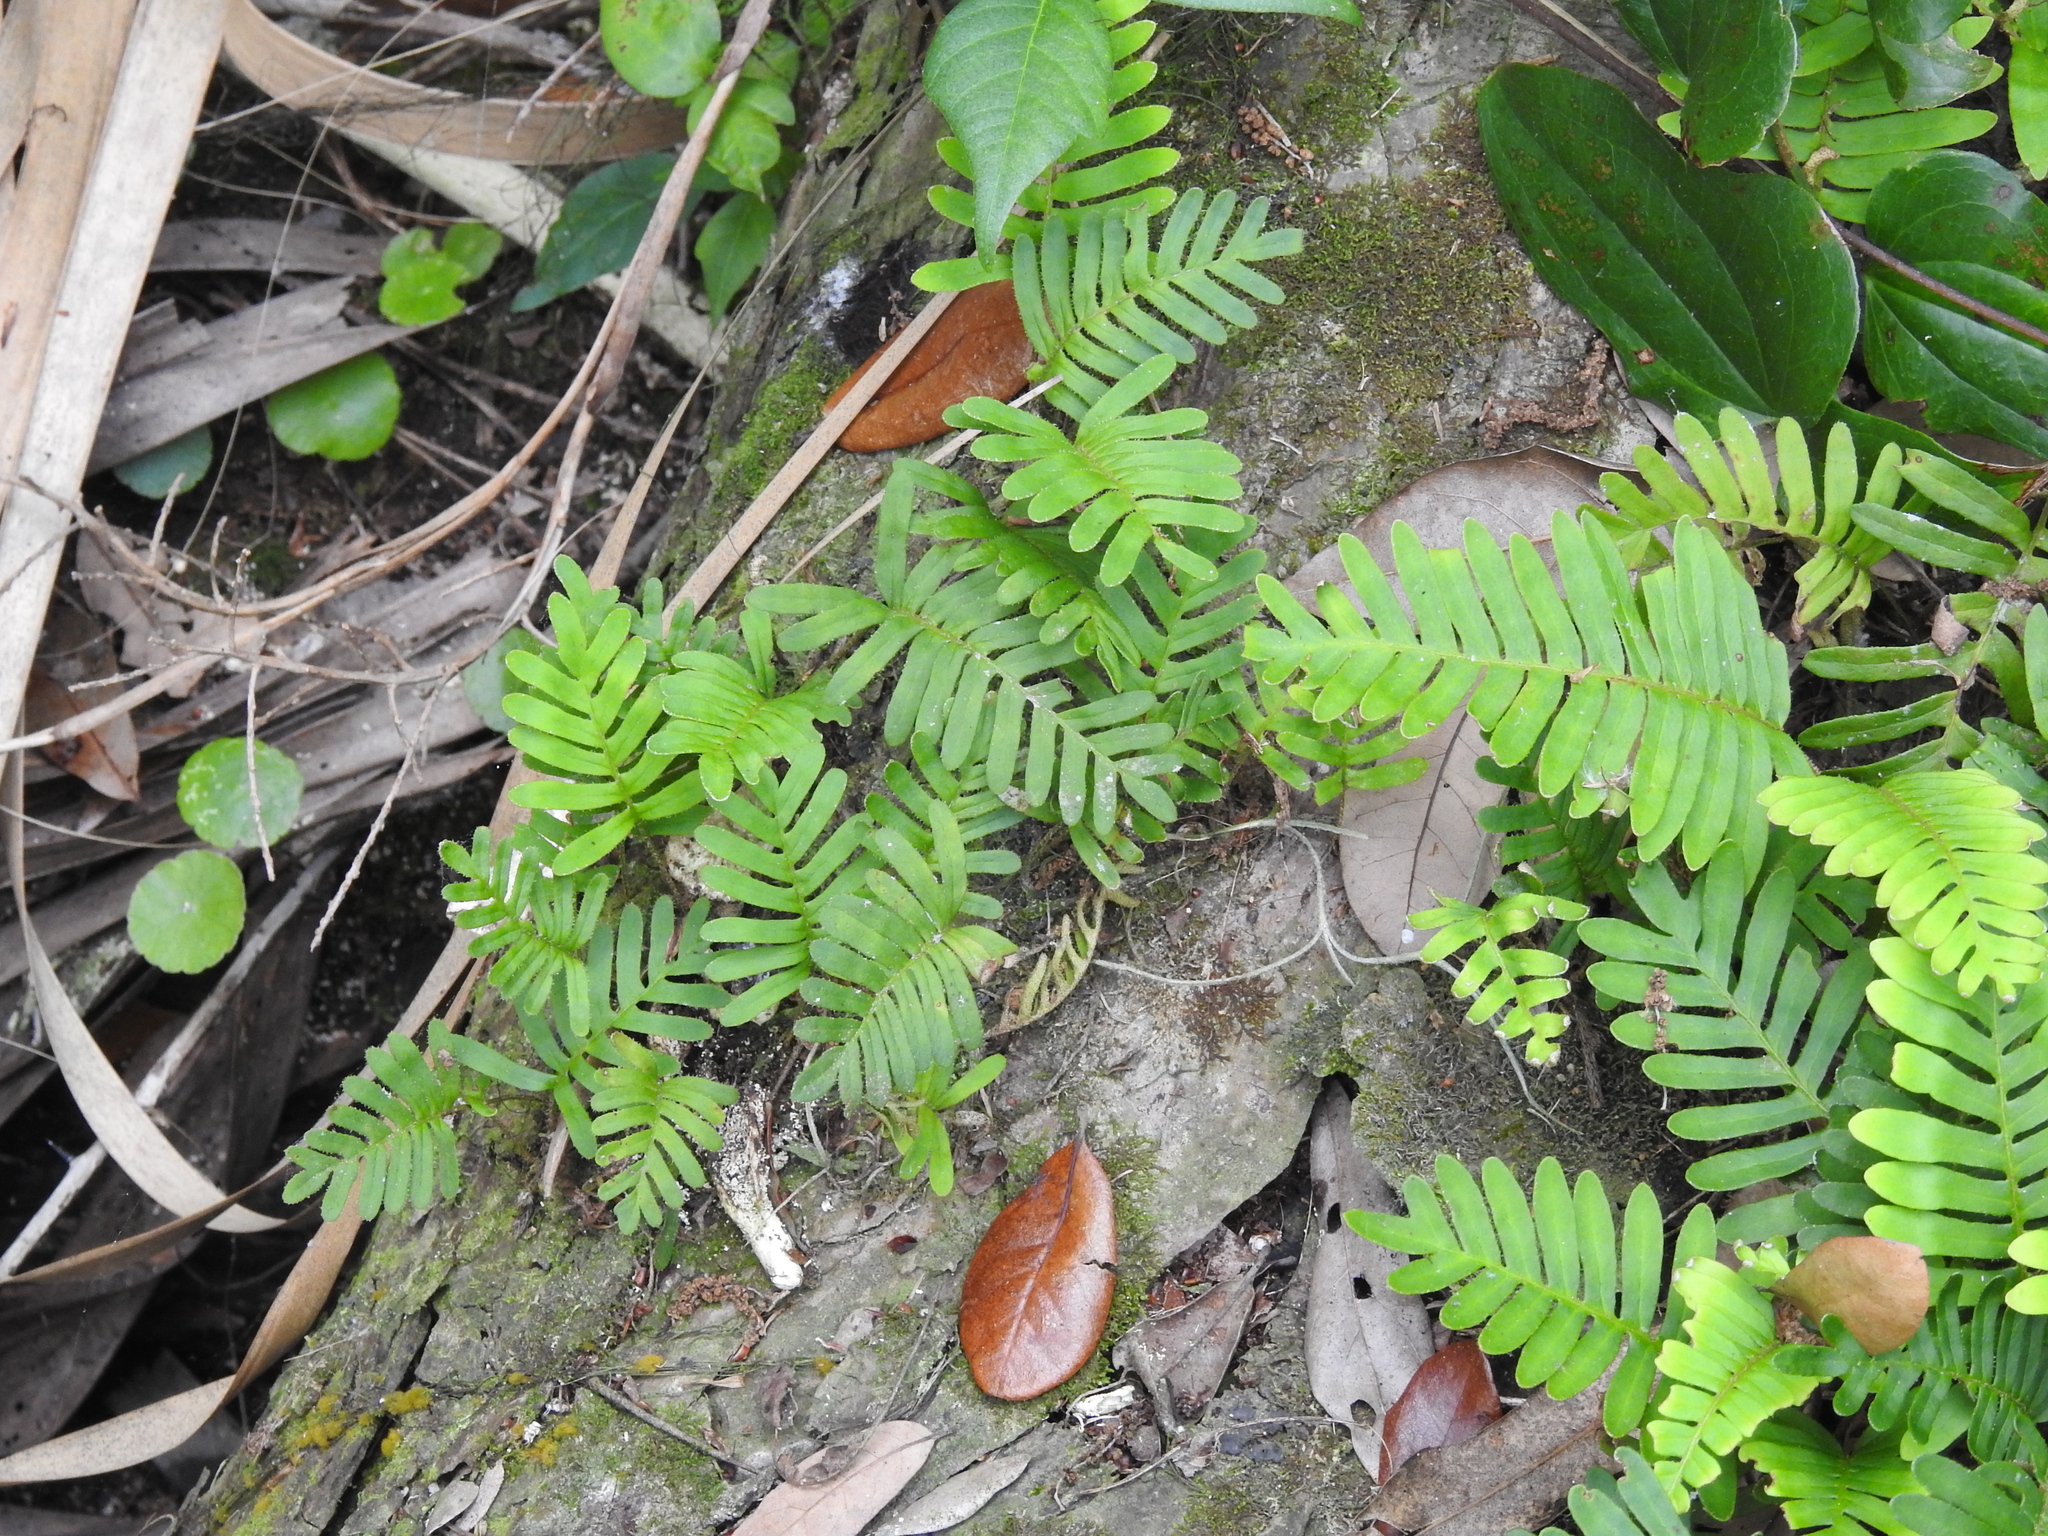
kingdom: Plantae
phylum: Tracheophyta
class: Polypodiopsida
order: Polypodiales
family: Polypodiaceae
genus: Pleopeltis
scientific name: Pleopeltis michauxiana
